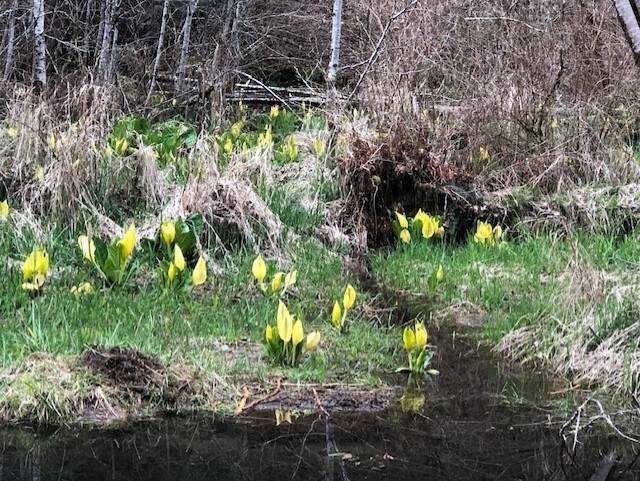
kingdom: Plantae
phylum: Tracheophyta
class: Liliopsida
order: Alismatales
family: Araceae
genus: Lysichiton
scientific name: Lysichiton americanus
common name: American skunk cabbage
